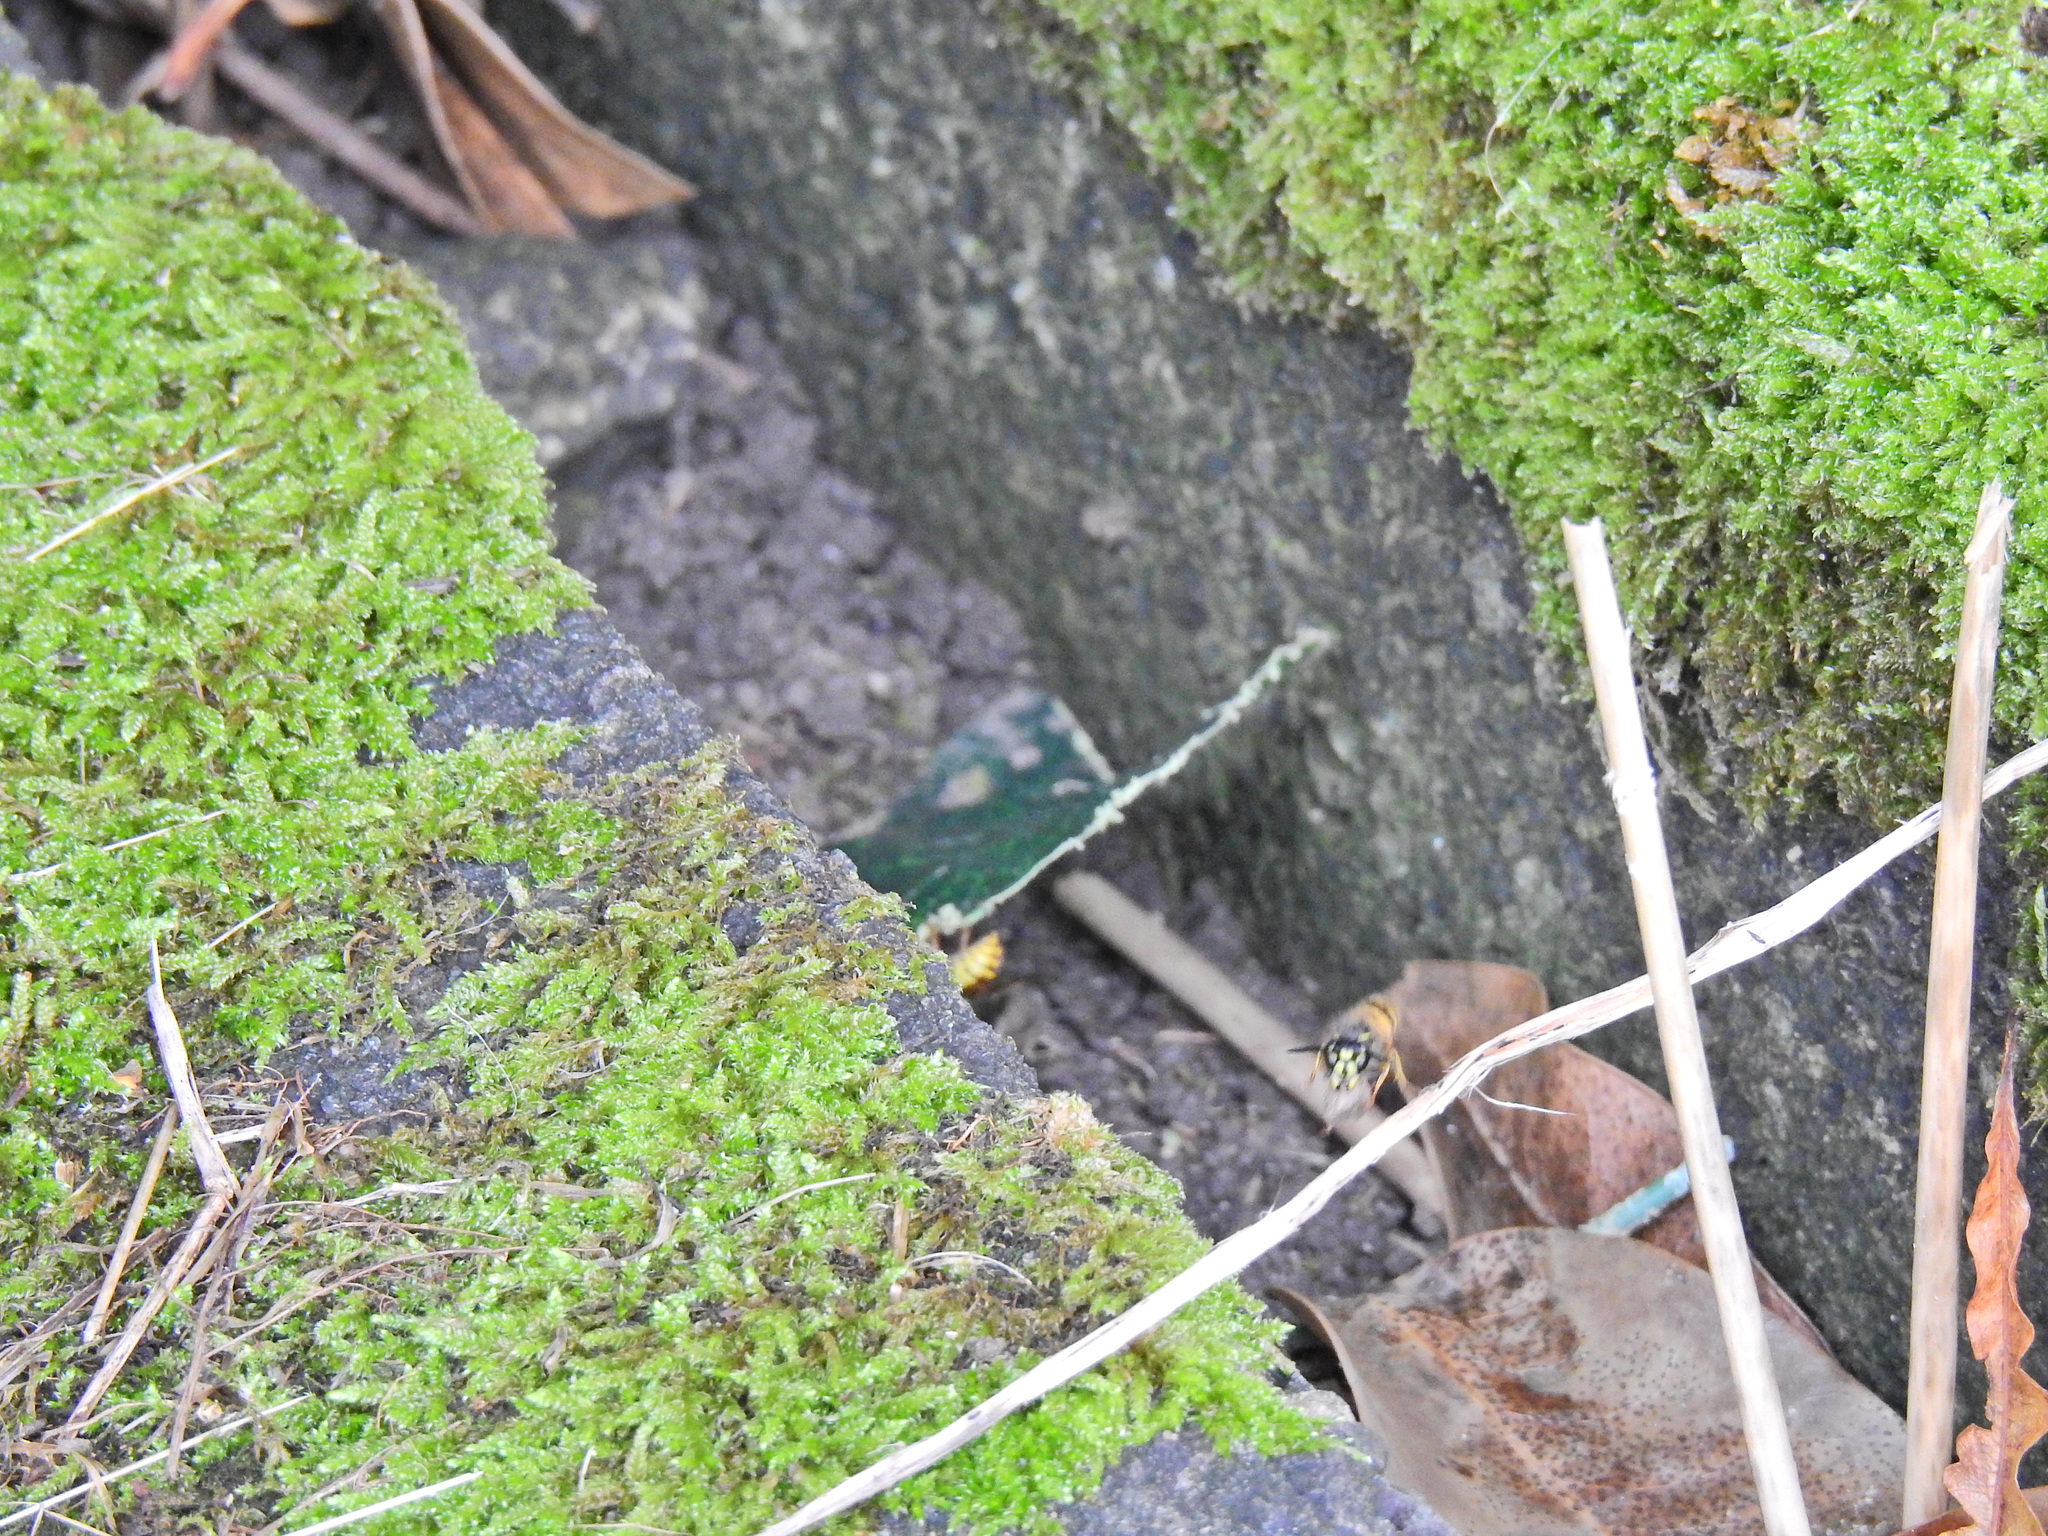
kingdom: Animalia
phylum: Arthropoda
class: Insecta
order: Hymenoptera
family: Vespidae
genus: Vespula
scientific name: Vespula vulgaris
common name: Common wasp
